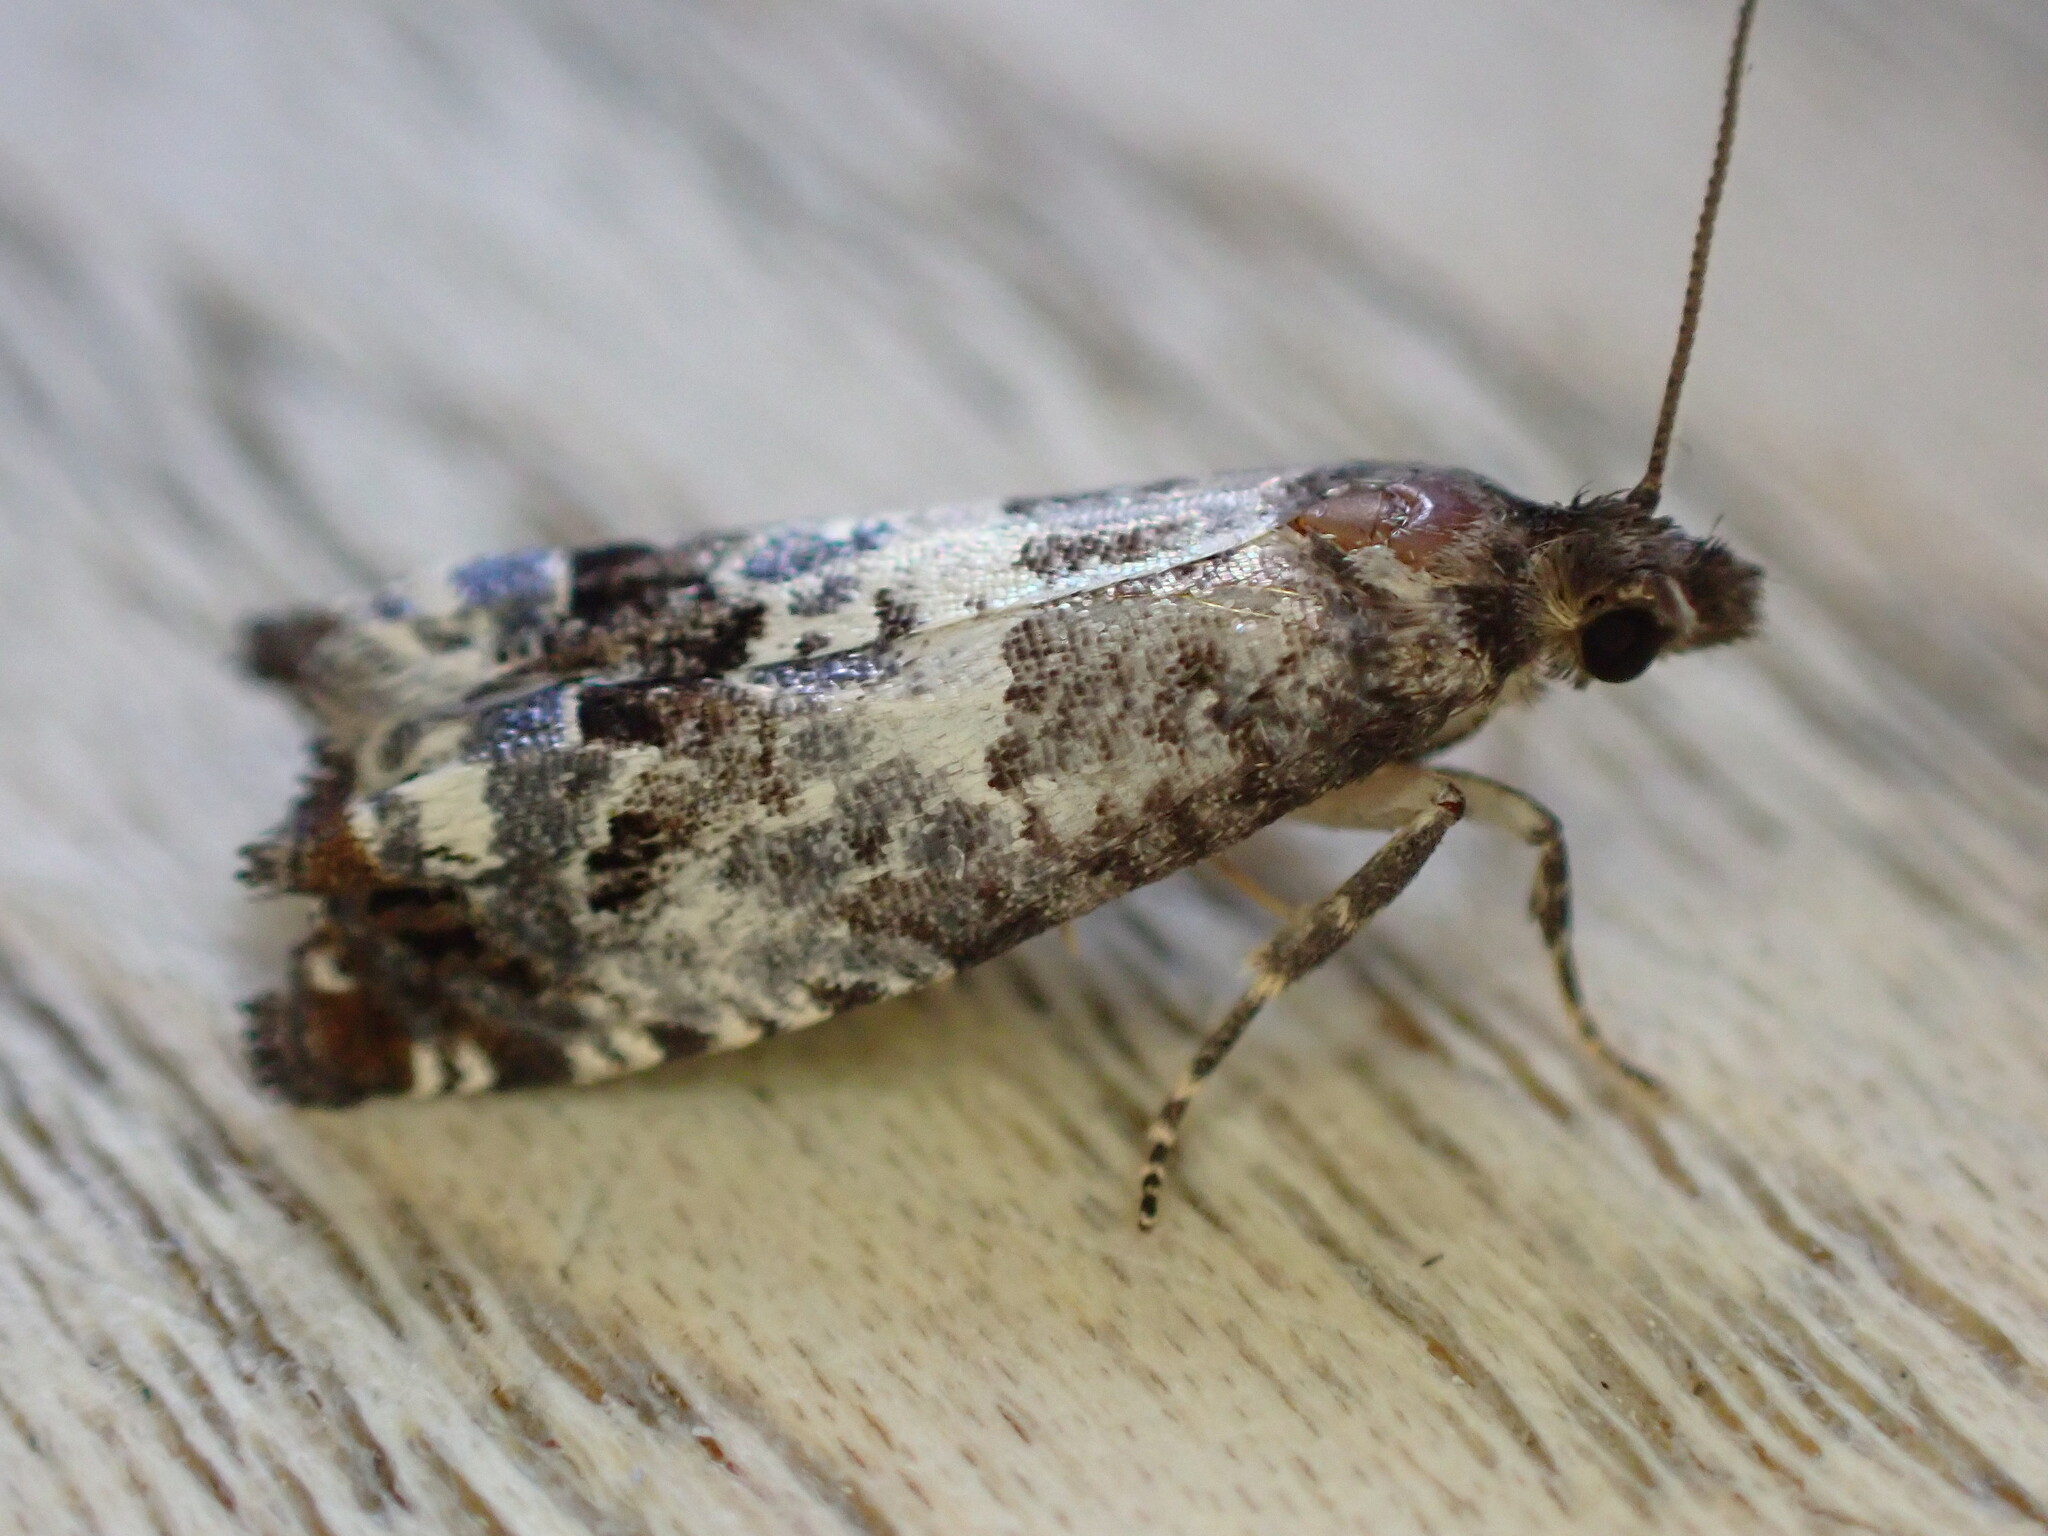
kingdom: Animalia
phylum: Arthropoda
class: Insecta
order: Lepidoptera
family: Tortricidae
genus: Notocelia
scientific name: Notocelia rosaecolana
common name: Common rose bell
